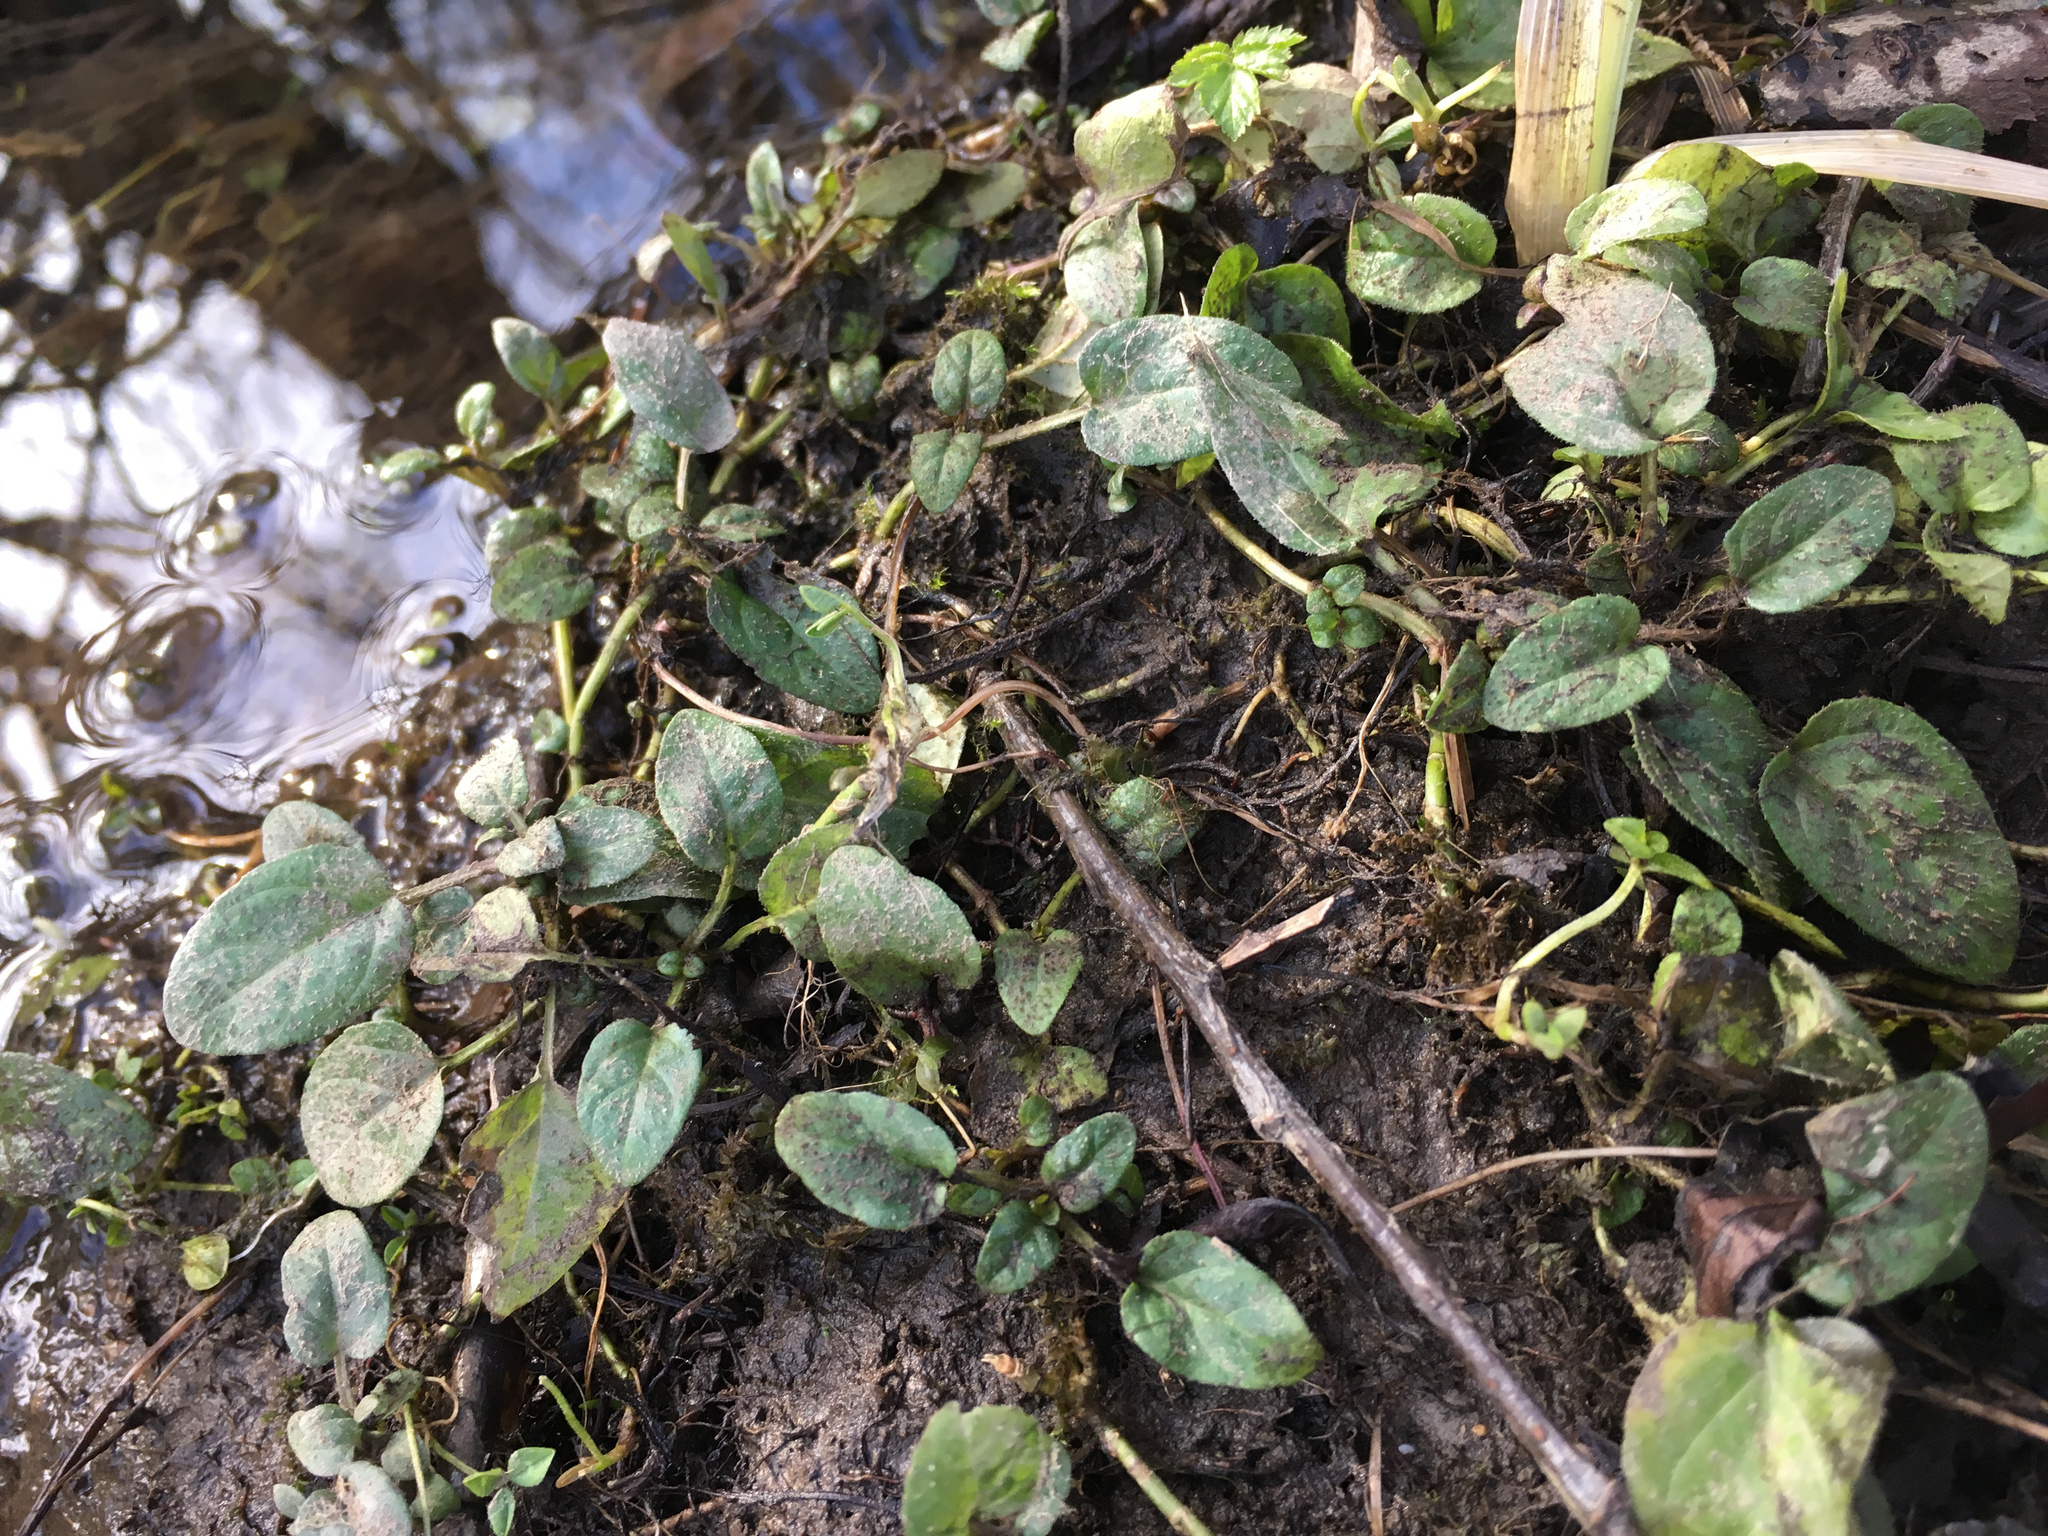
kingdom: Plantae
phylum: Tracheophyta
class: Magnoliopsida
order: Lamiales
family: Lamiaceae
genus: Prunella
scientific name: Prunella vulgaris
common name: Heal-all
